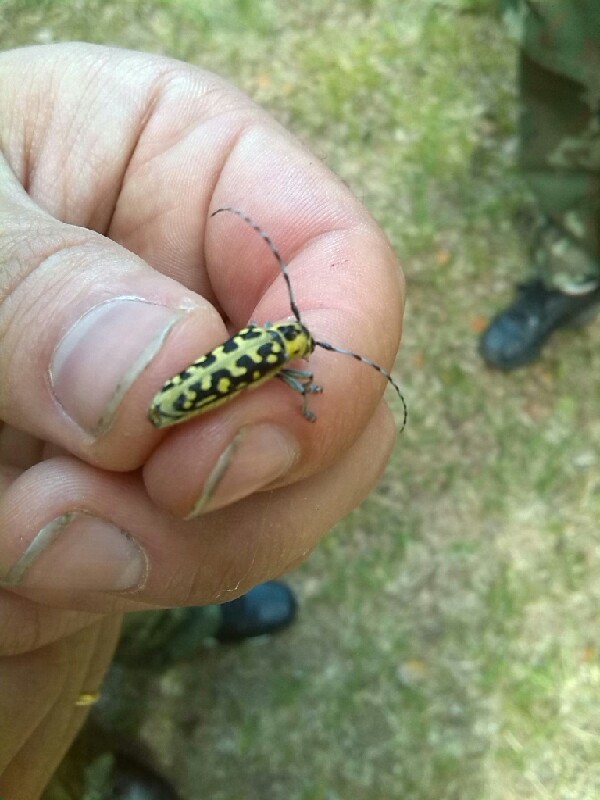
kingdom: Animalia
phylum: Arthropoda
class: Insecta
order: Coleoptera
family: Cerambycidae
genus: Saperda
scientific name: Saperda scalaris
